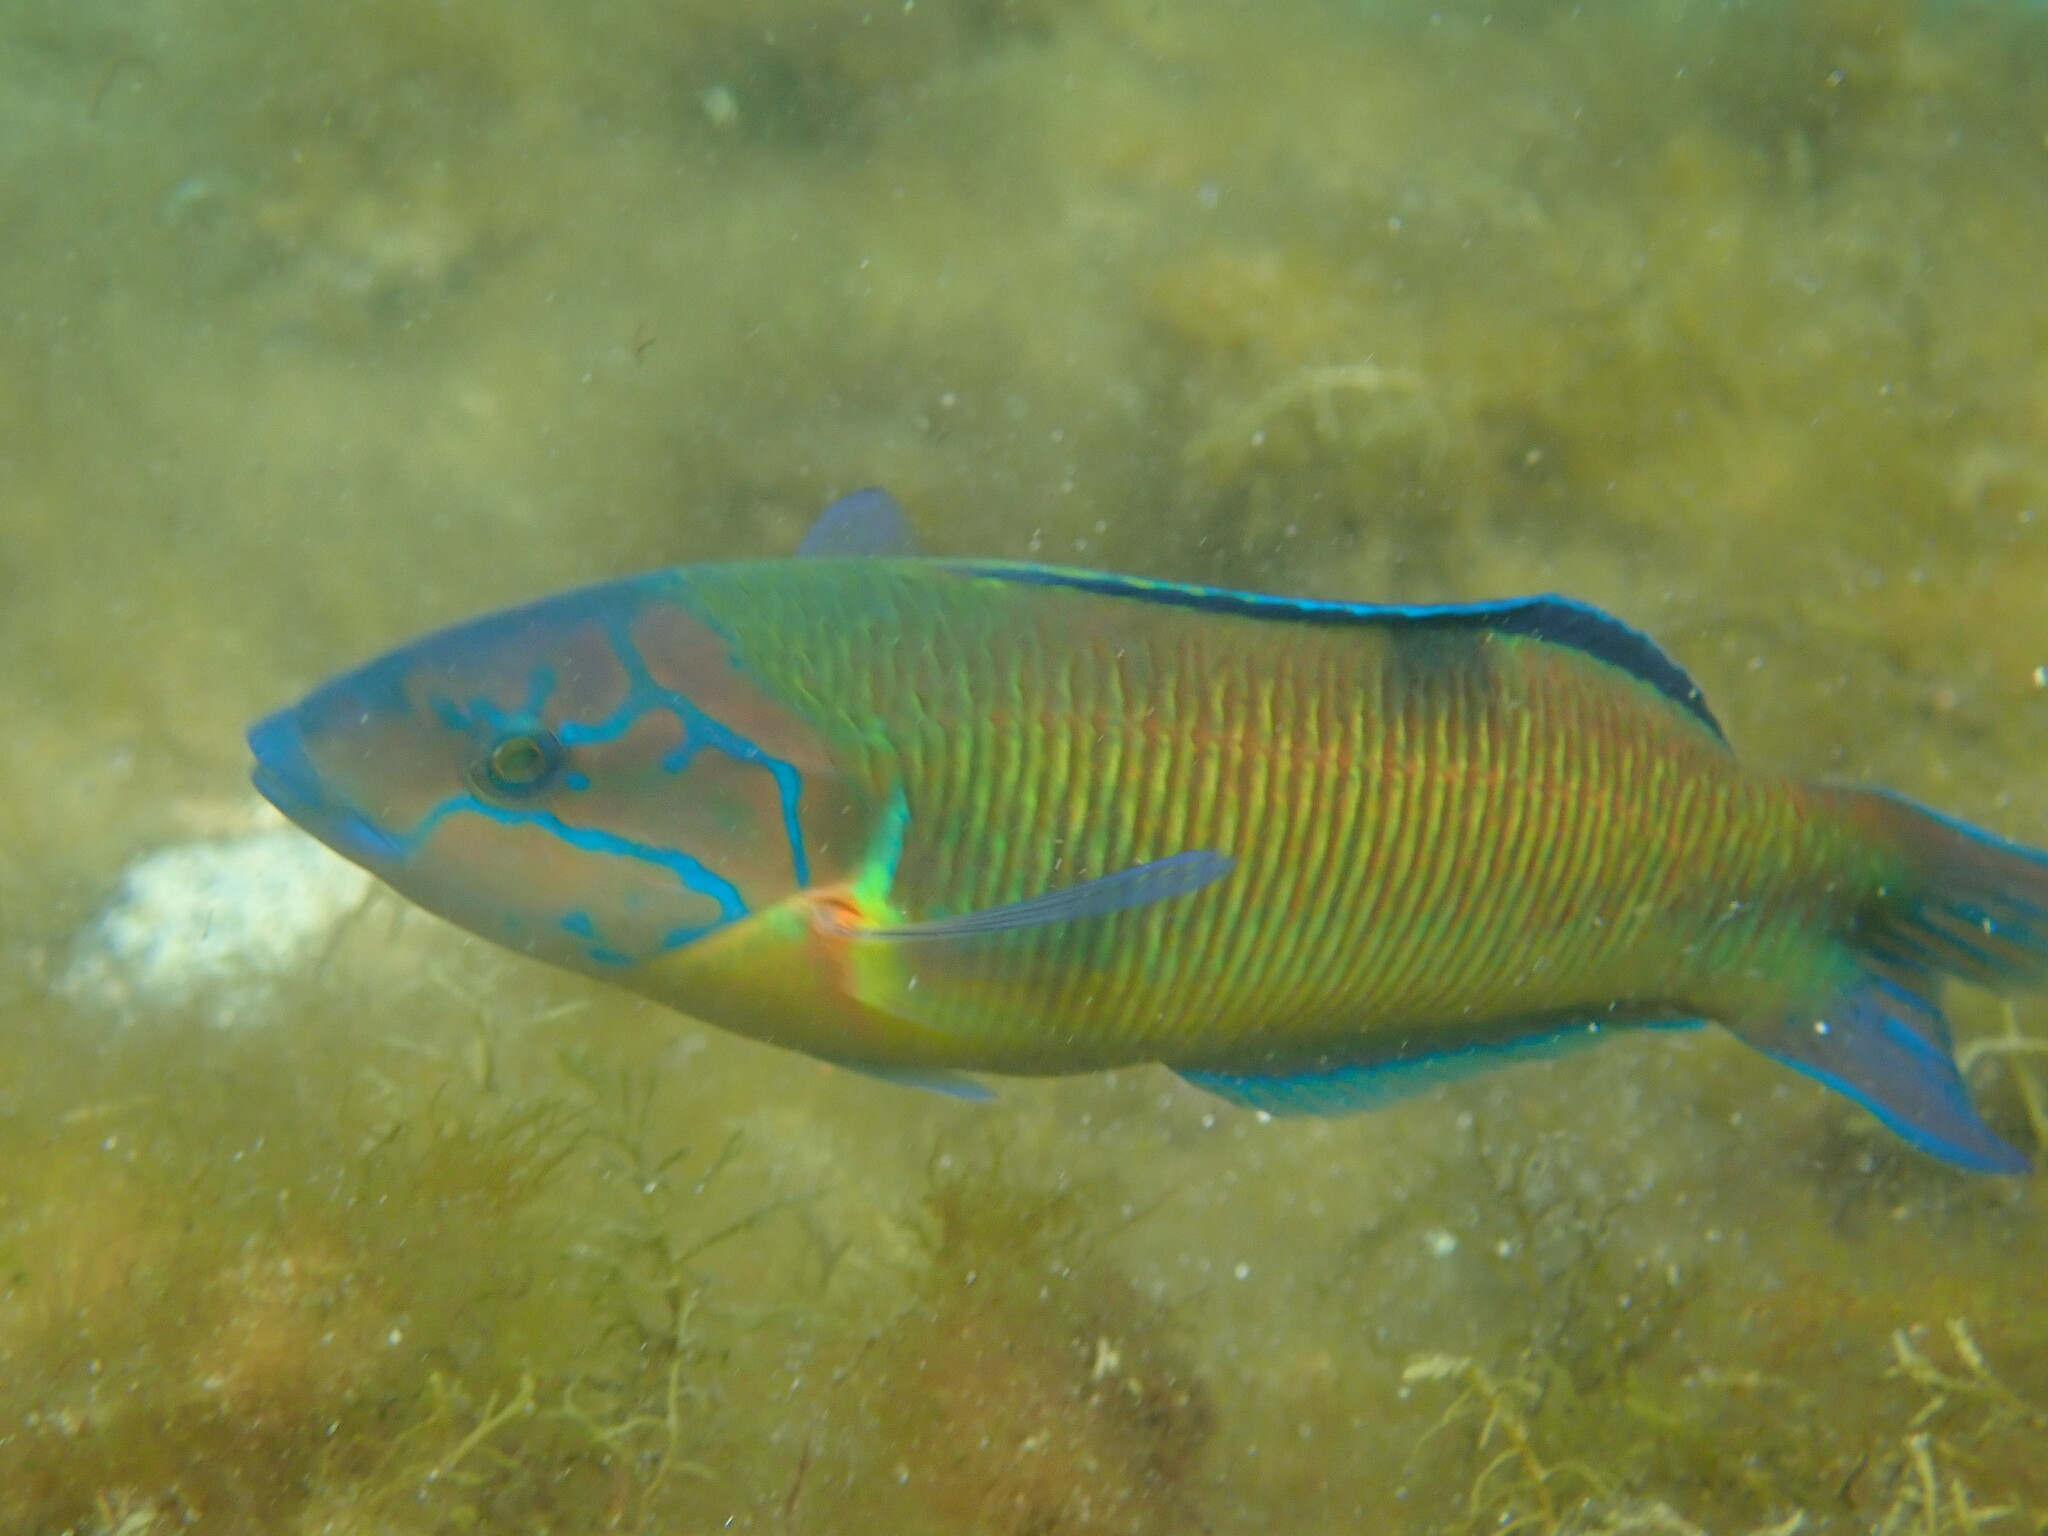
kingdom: Animalia
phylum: Chordata
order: Perciformes
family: Labridae
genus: Thalassoma
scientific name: Thalassoma pavo
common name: Ornate wrasse
